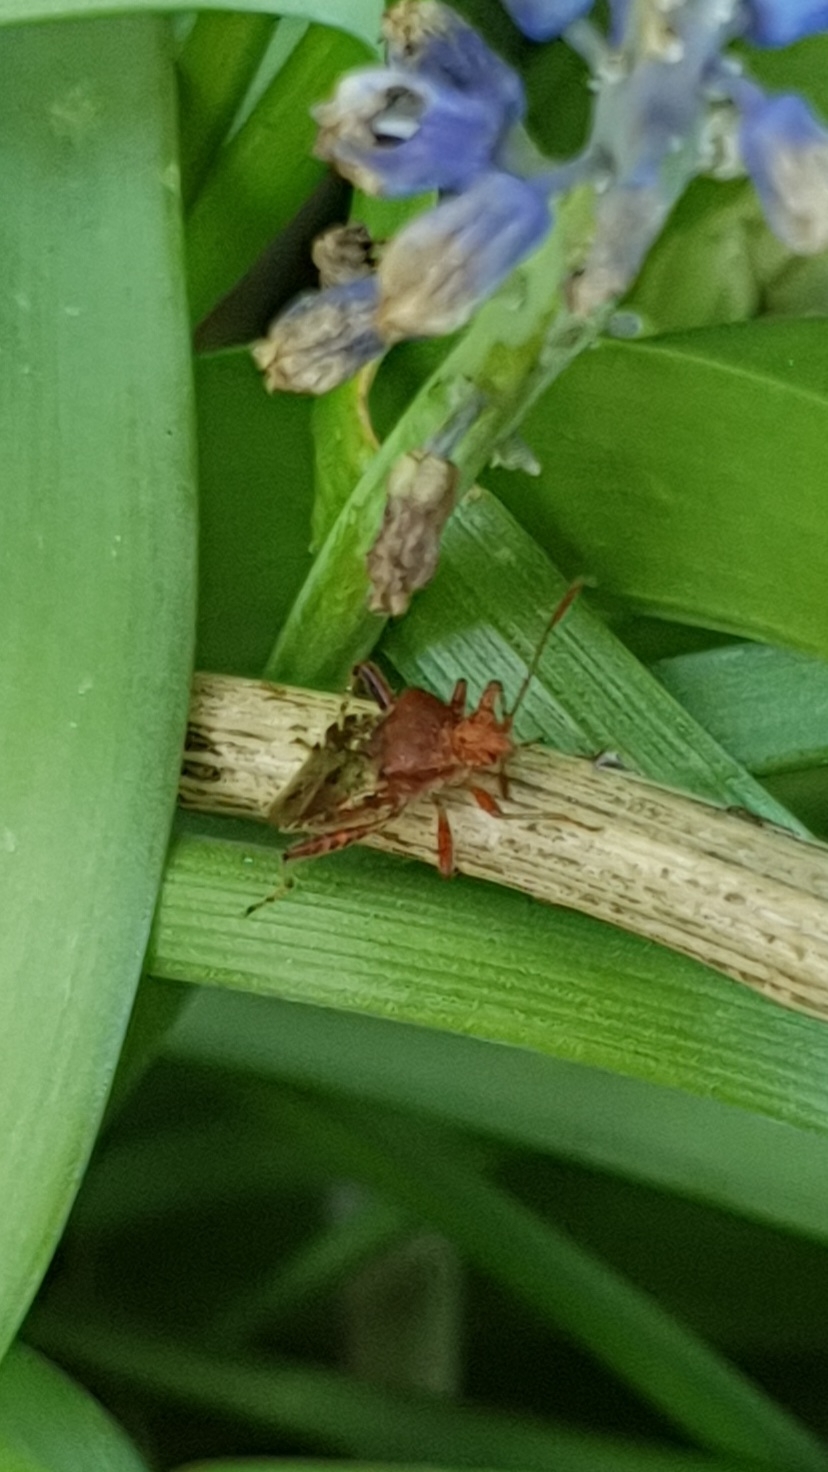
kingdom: Animalia
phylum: Arthropoda
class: Insecta
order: Hemiptera
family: Rhopalidae
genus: Rhopalus
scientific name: Rhopalus subrufus
